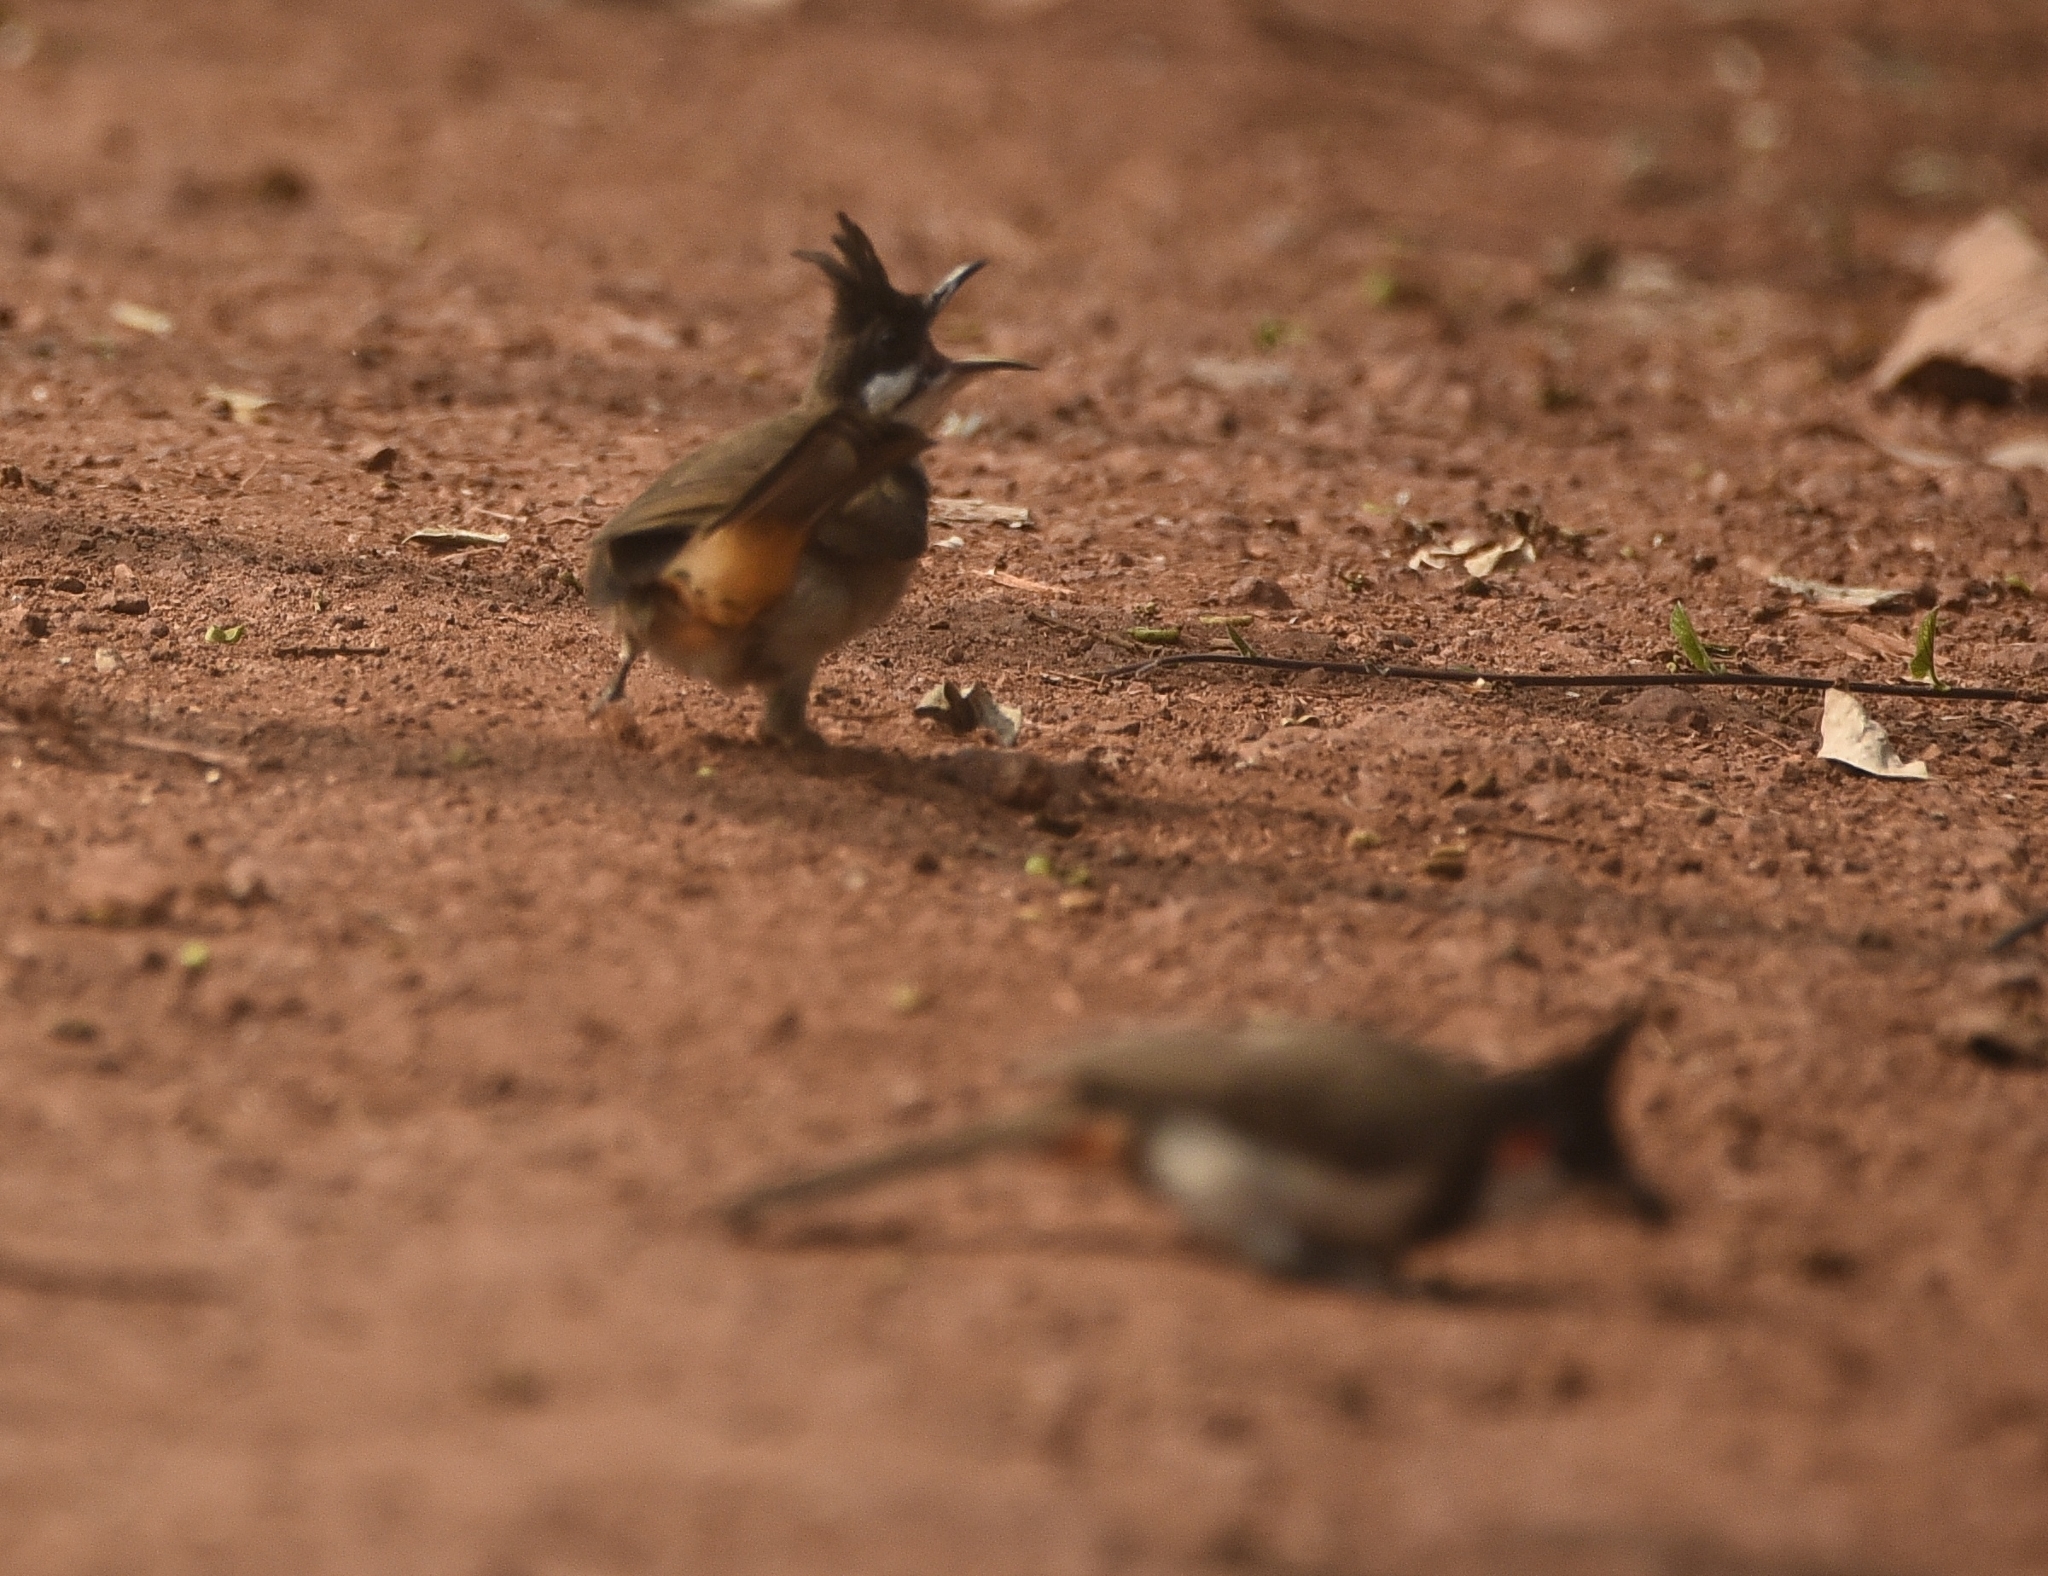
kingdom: Animalia
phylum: Chordata
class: Aves
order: Passeriformes
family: Pycnonotidae
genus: Pycnonotus
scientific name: Pycnonotus jocosus
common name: Red-whiskered bulbul
